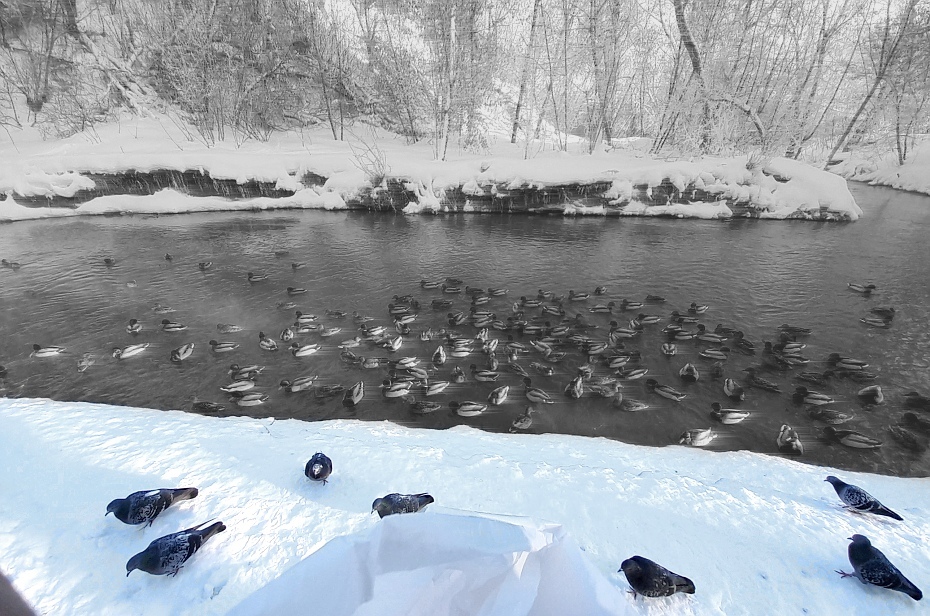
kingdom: Animalia
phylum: Chordata
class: Aves
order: Columbiformes
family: Columbidae
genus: Columba
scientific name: Columba livia
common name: Rock pigeon
